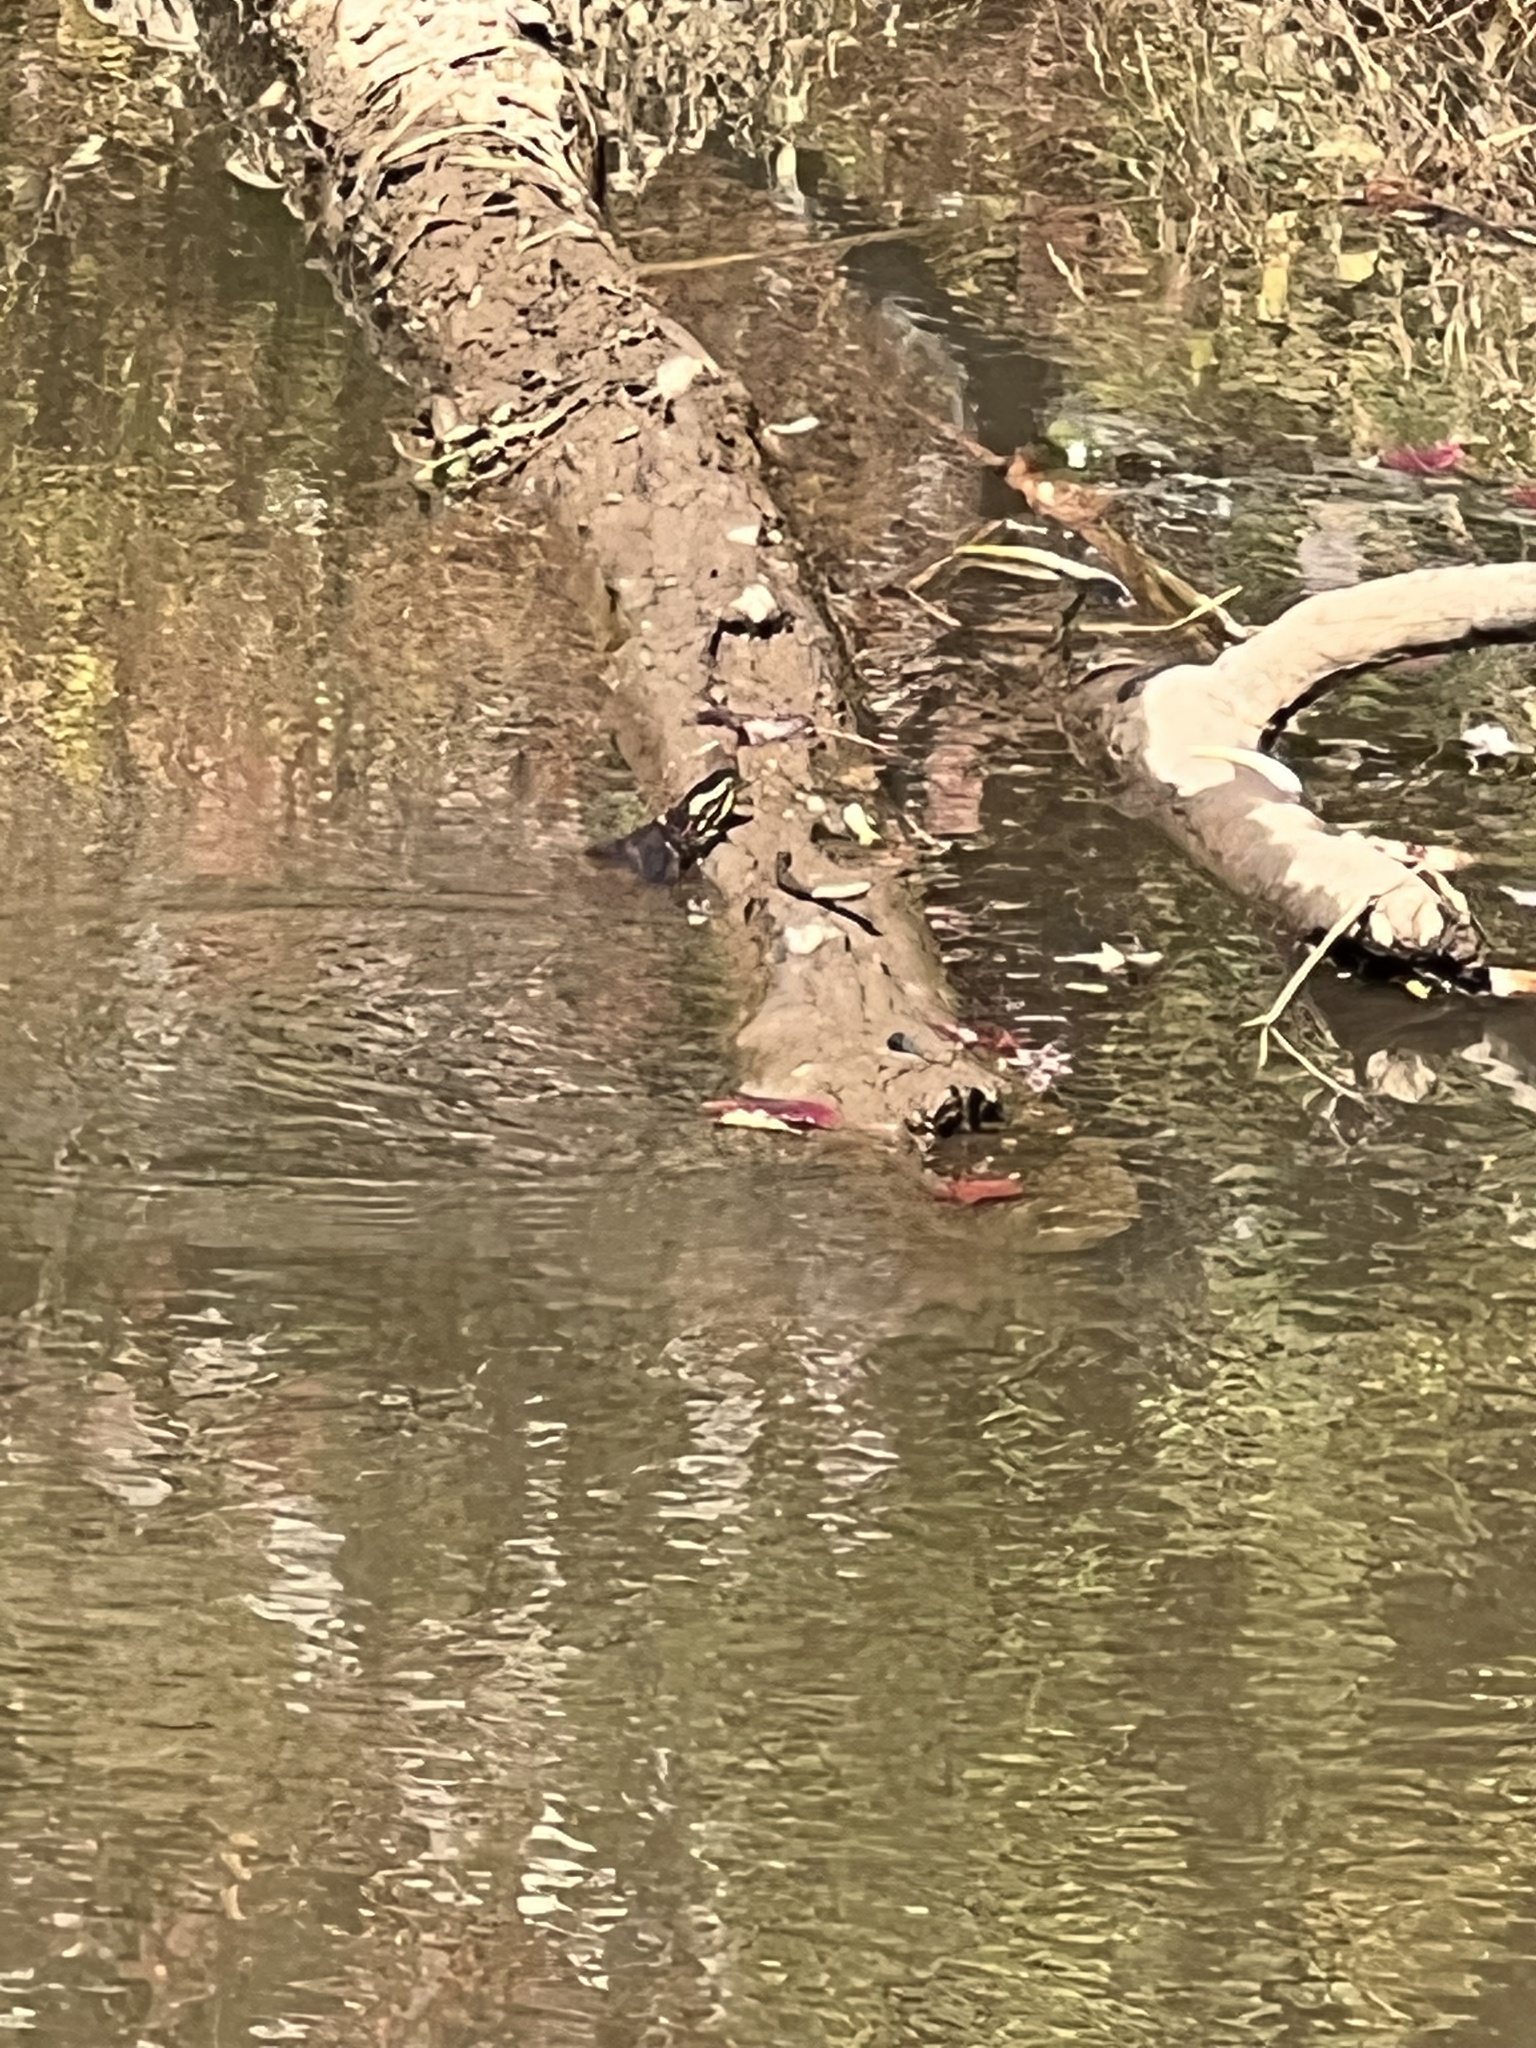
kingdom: Animalia
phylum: Chordata
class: Testudines
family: Emydidae
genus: Chrysemys
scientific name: Chrysemys picta
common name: Painted turtle
